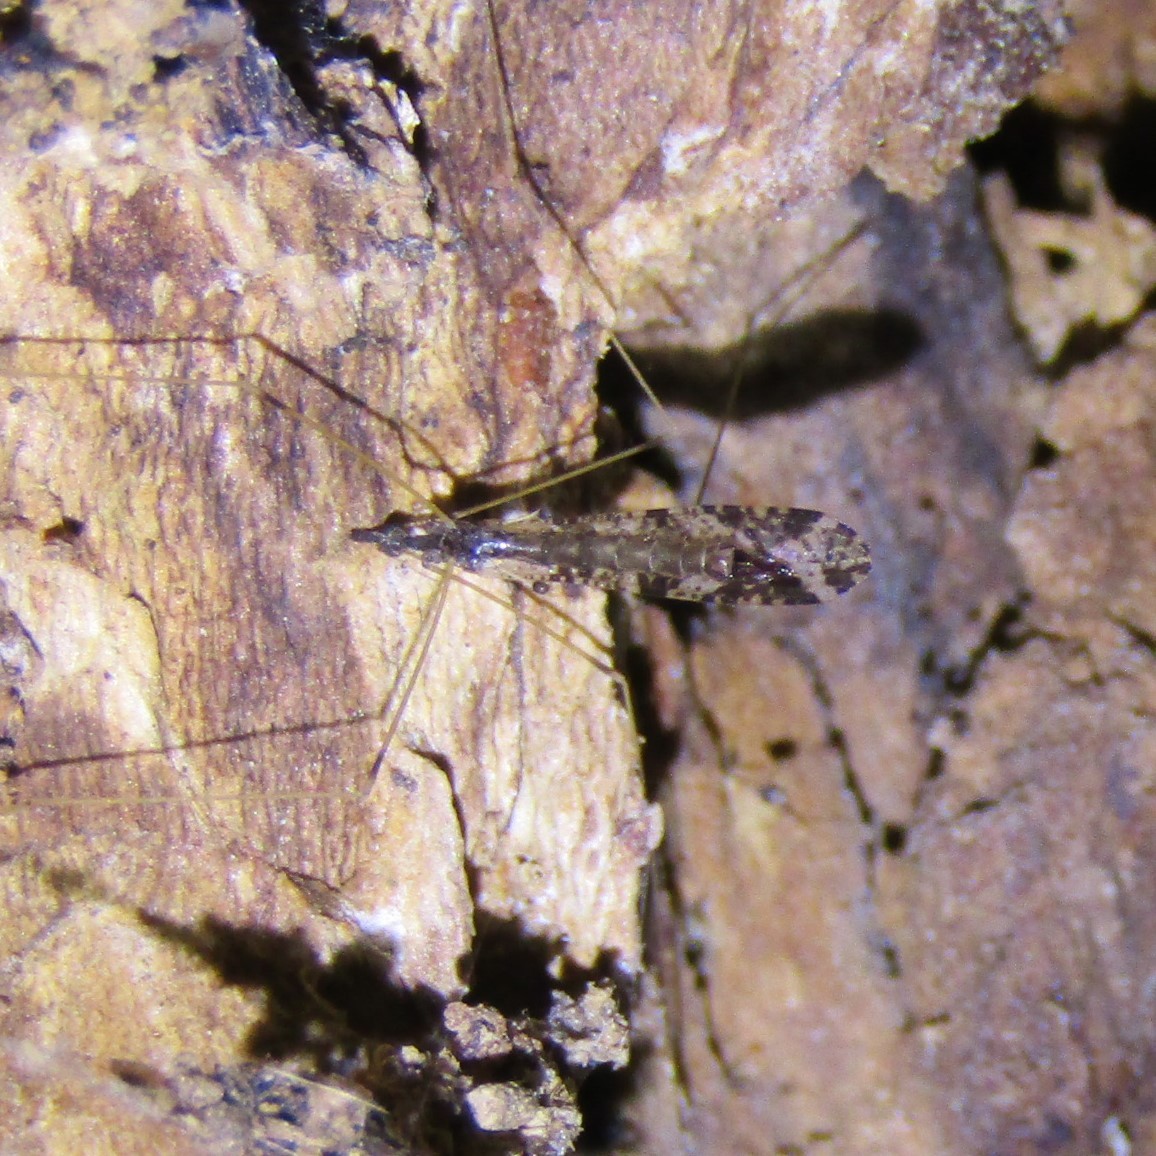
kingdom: Animalia
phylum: Arthropoda
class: Insecta
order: Diptera
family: Limoniidae
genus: Discobola
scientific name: Discobola striata
